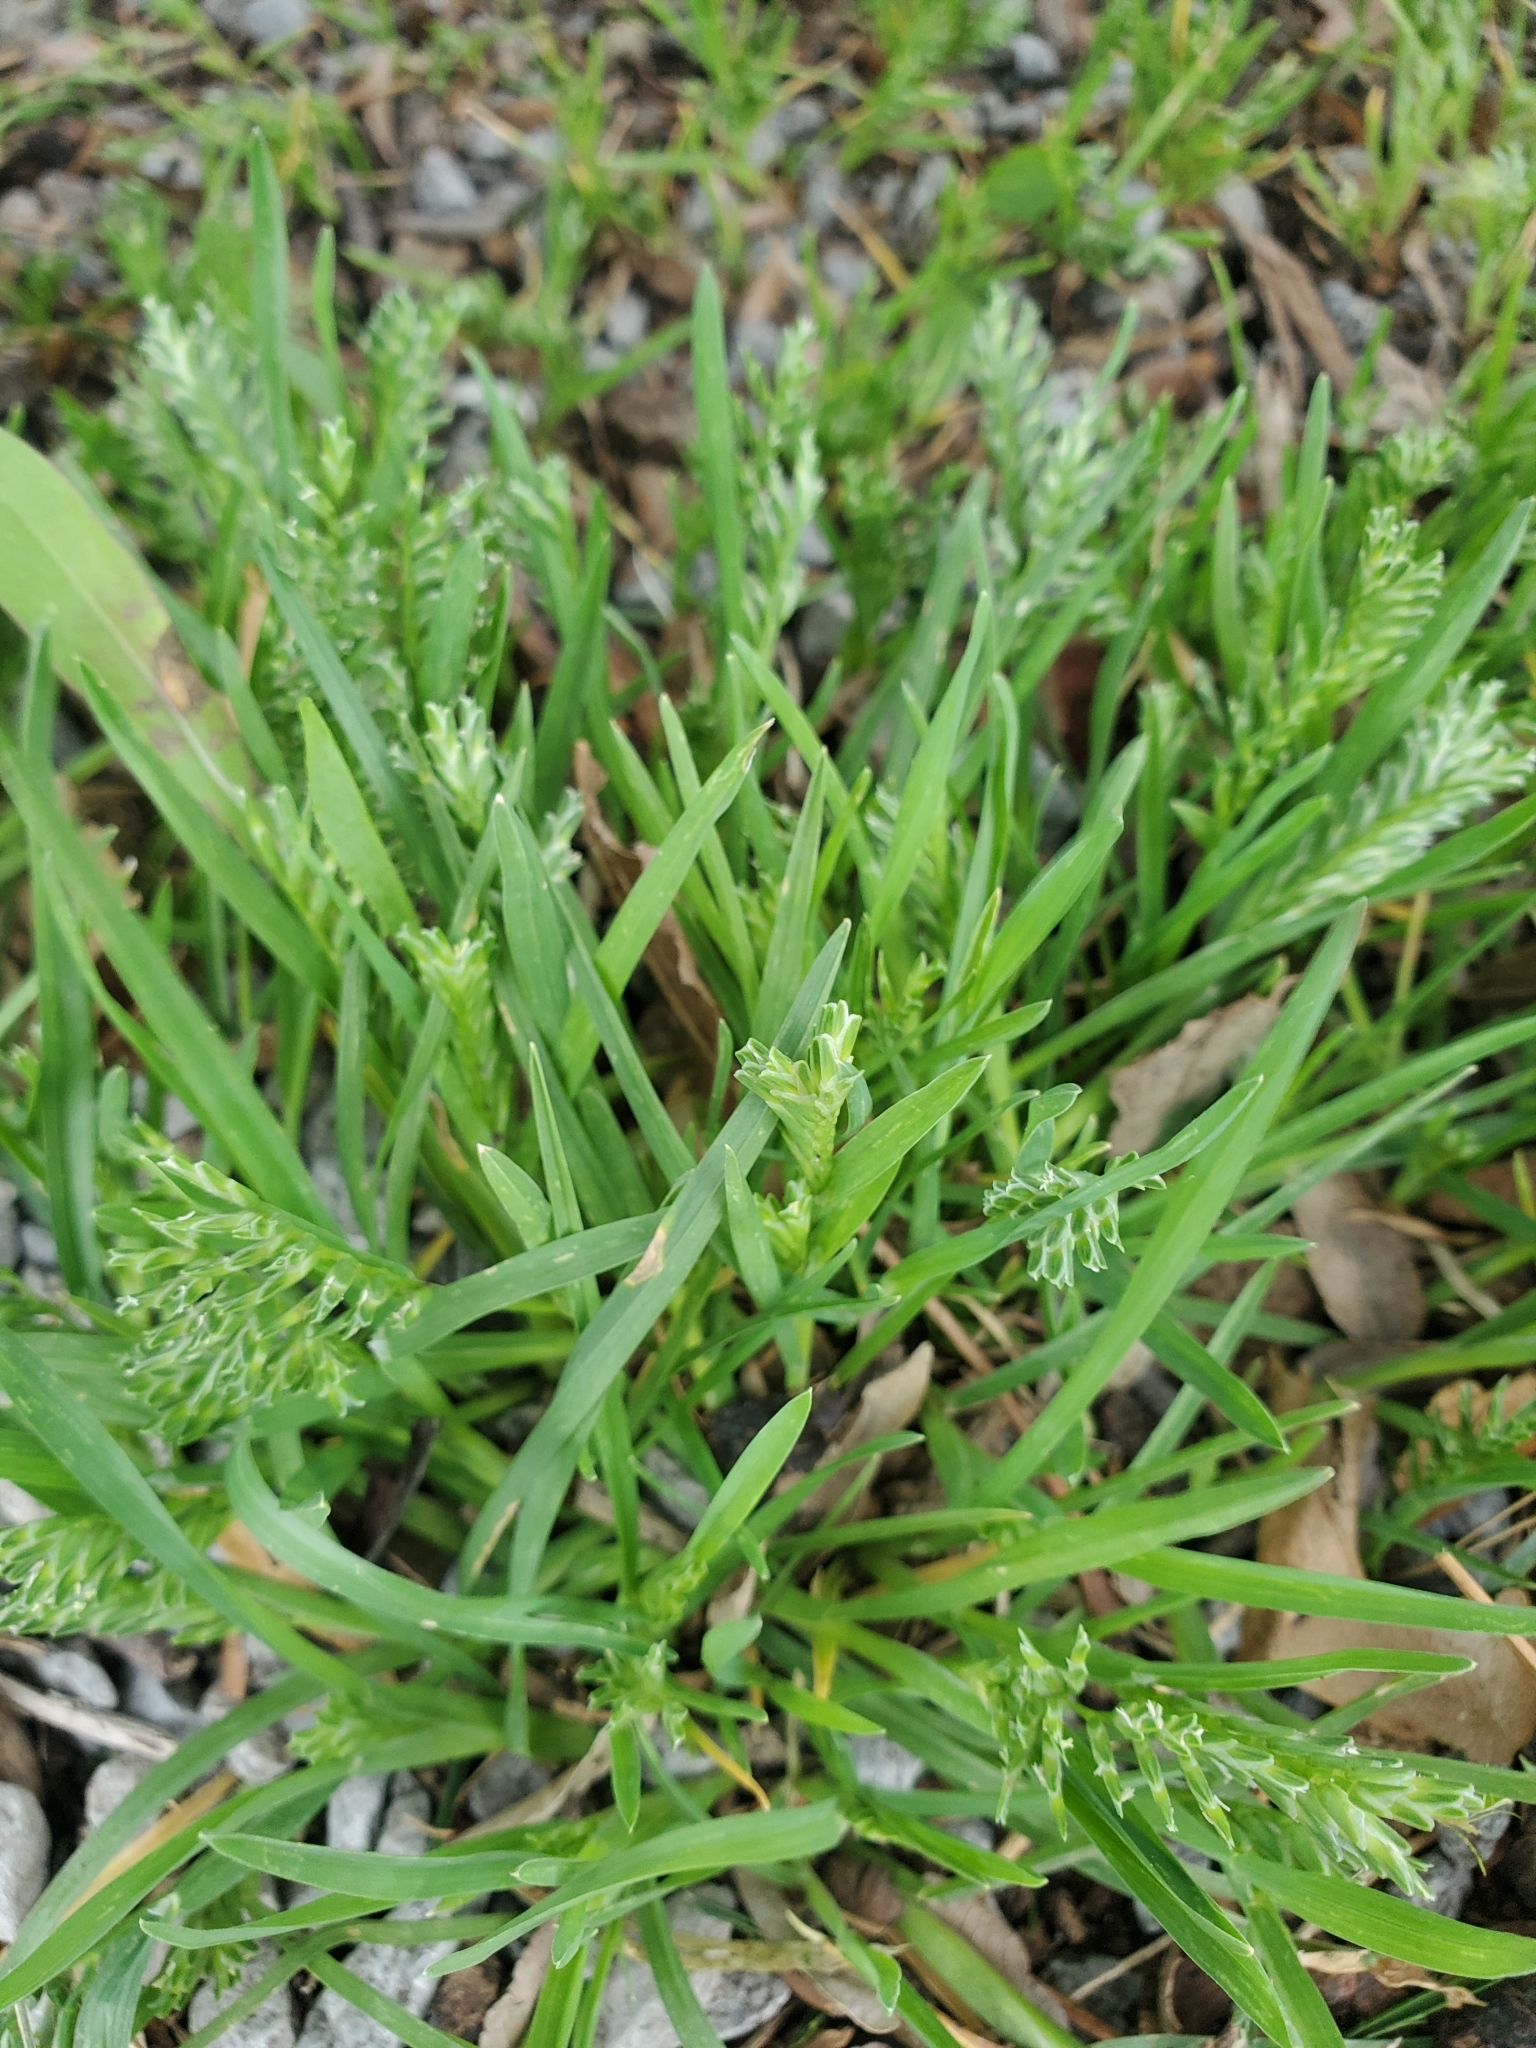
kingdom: Plantae
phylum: Tracheophyta
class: Liliopsida
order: Poales
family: Poaceae
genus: Sclerochloa
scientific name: Sclerochloa dura
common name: Common hardgrass
